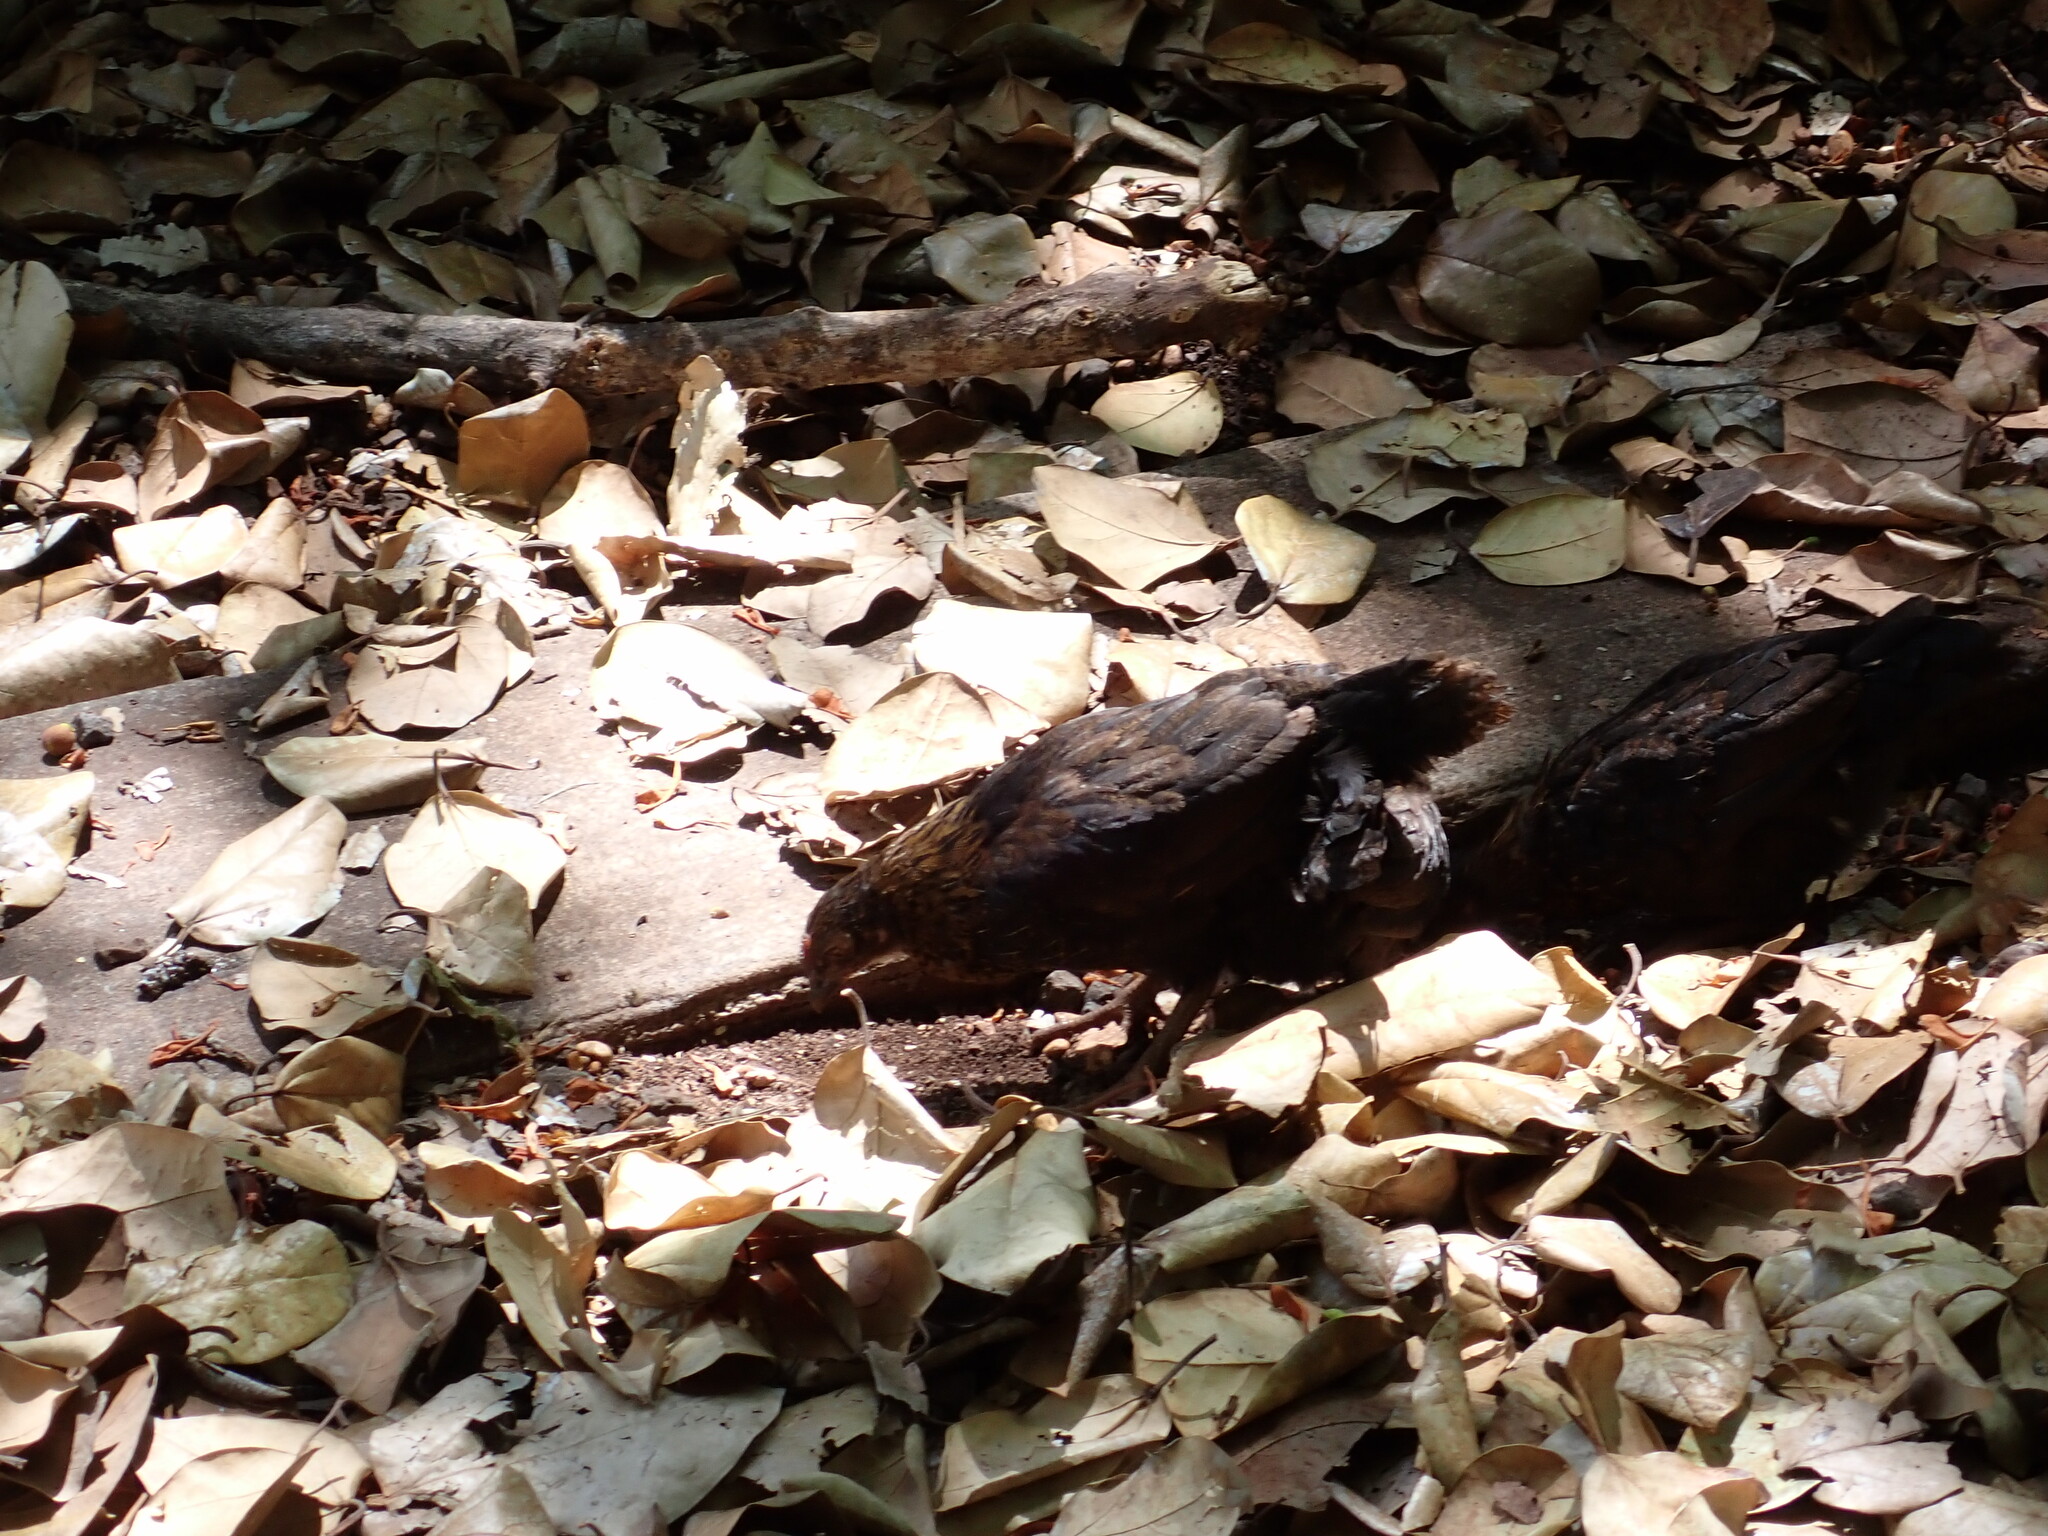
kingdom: Animalia
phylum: Chordata
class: Aves
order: Galliformes
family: Phasianidae
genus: Gallus
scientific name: Gallus gallus
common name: Red junglefowl
